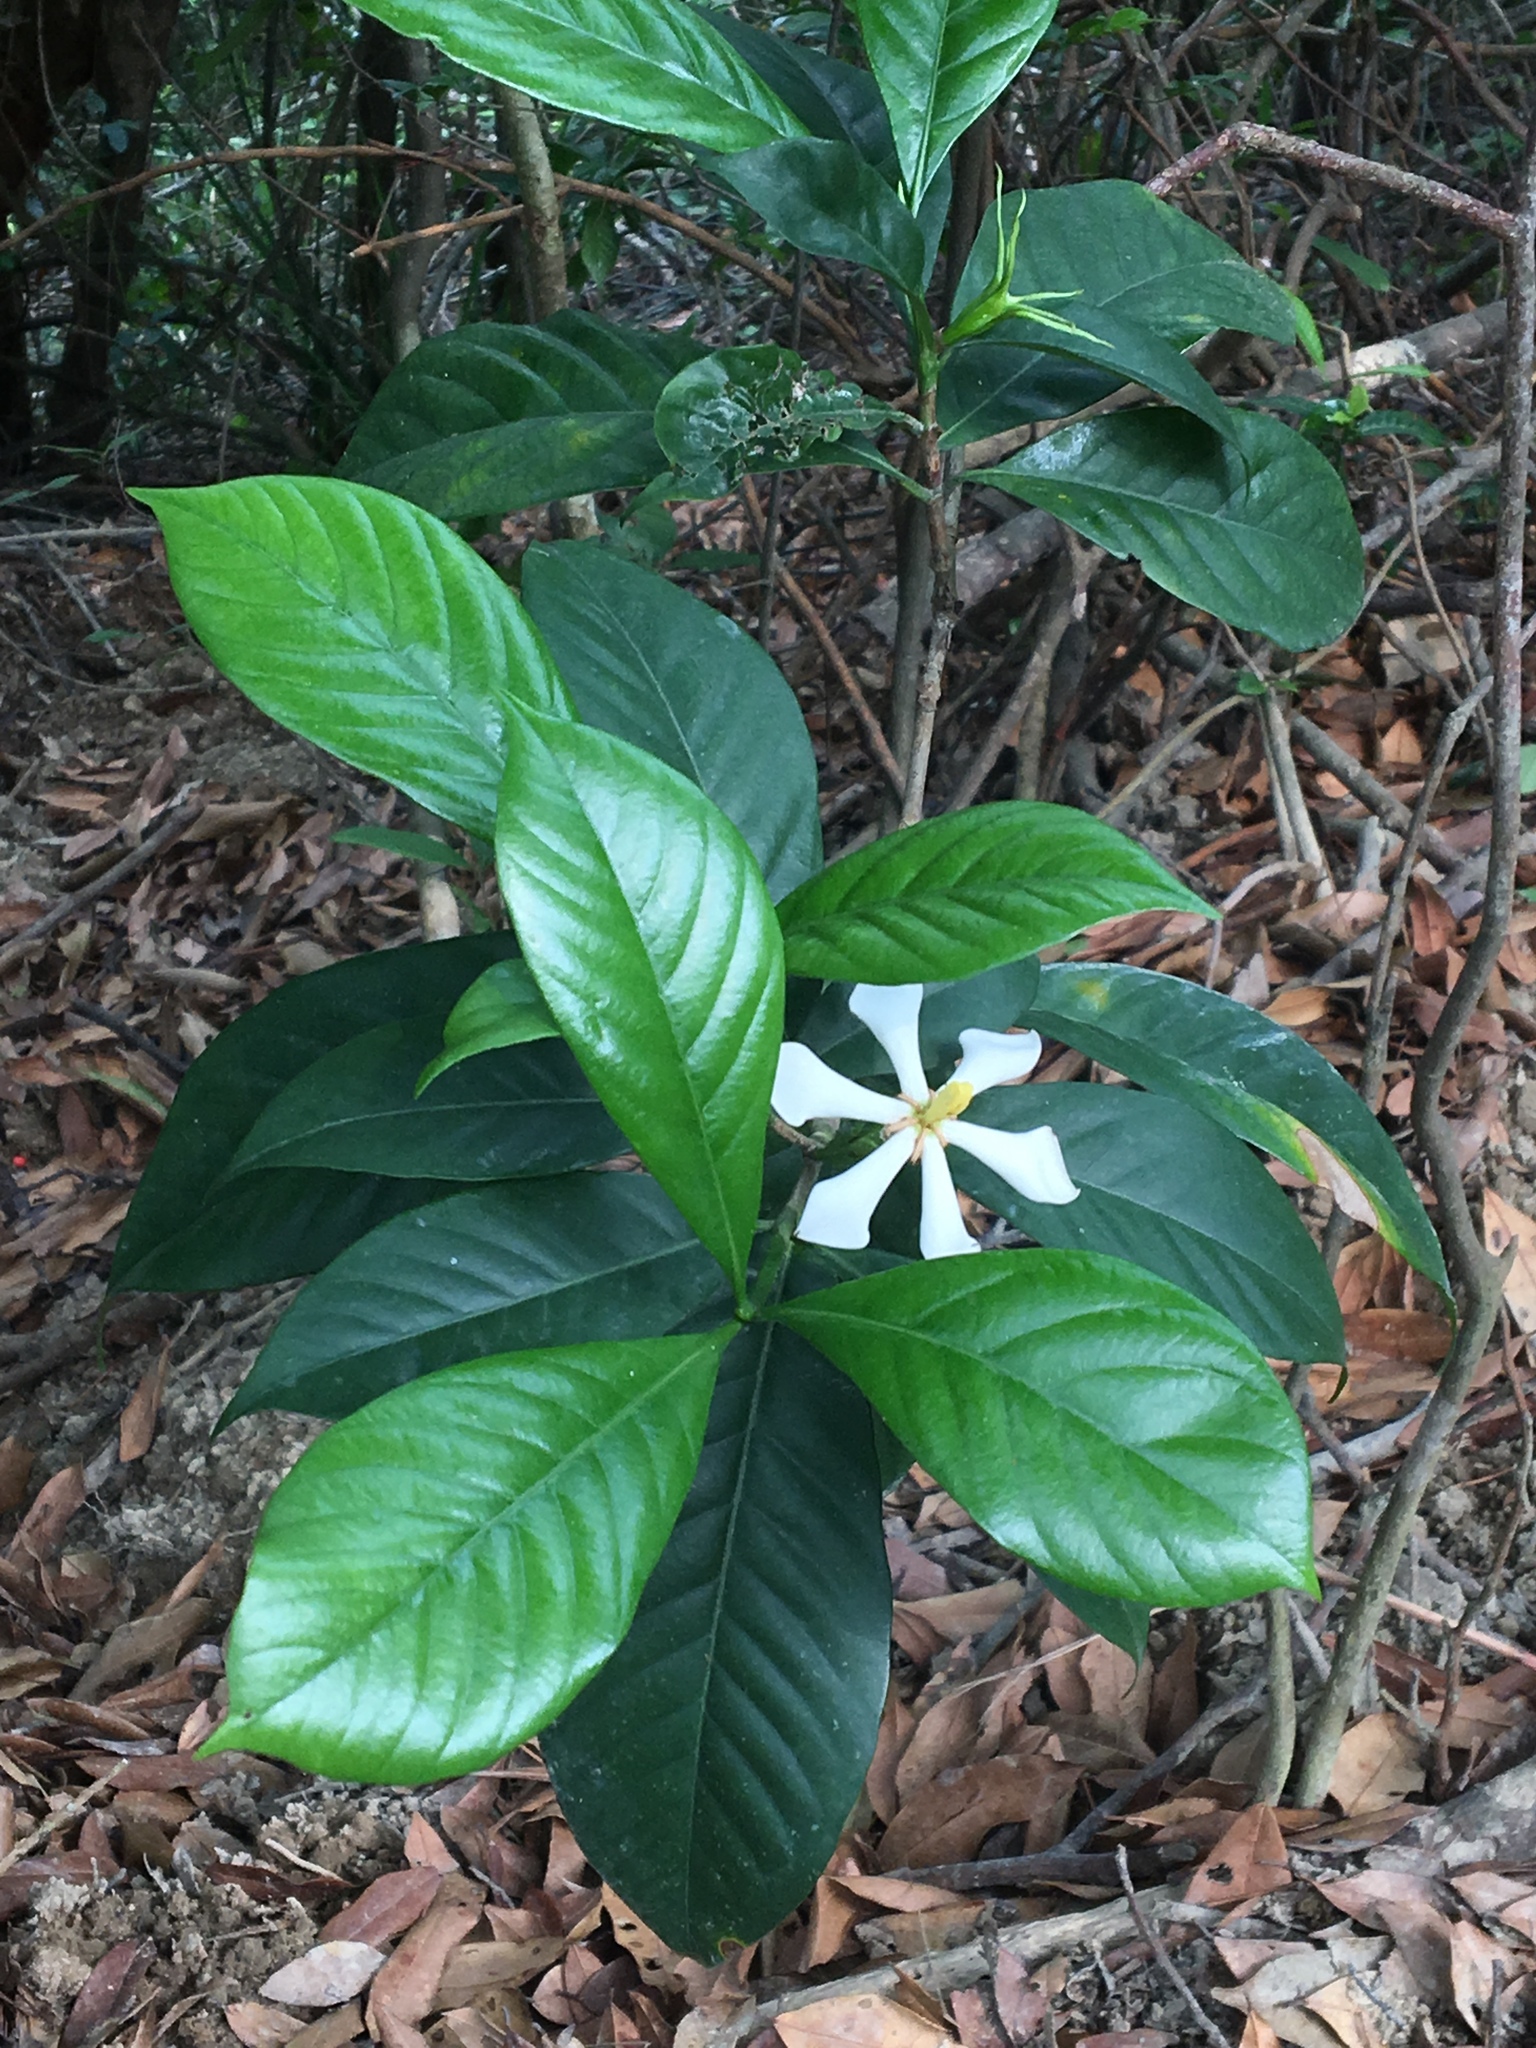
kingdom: Plantae
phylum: Tracheophyta
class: Magnoliopsida
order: Gentianales
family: Rubiaceae
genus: Gardenia
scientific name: Gardenia jasminoides
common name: Cape-jasmine
